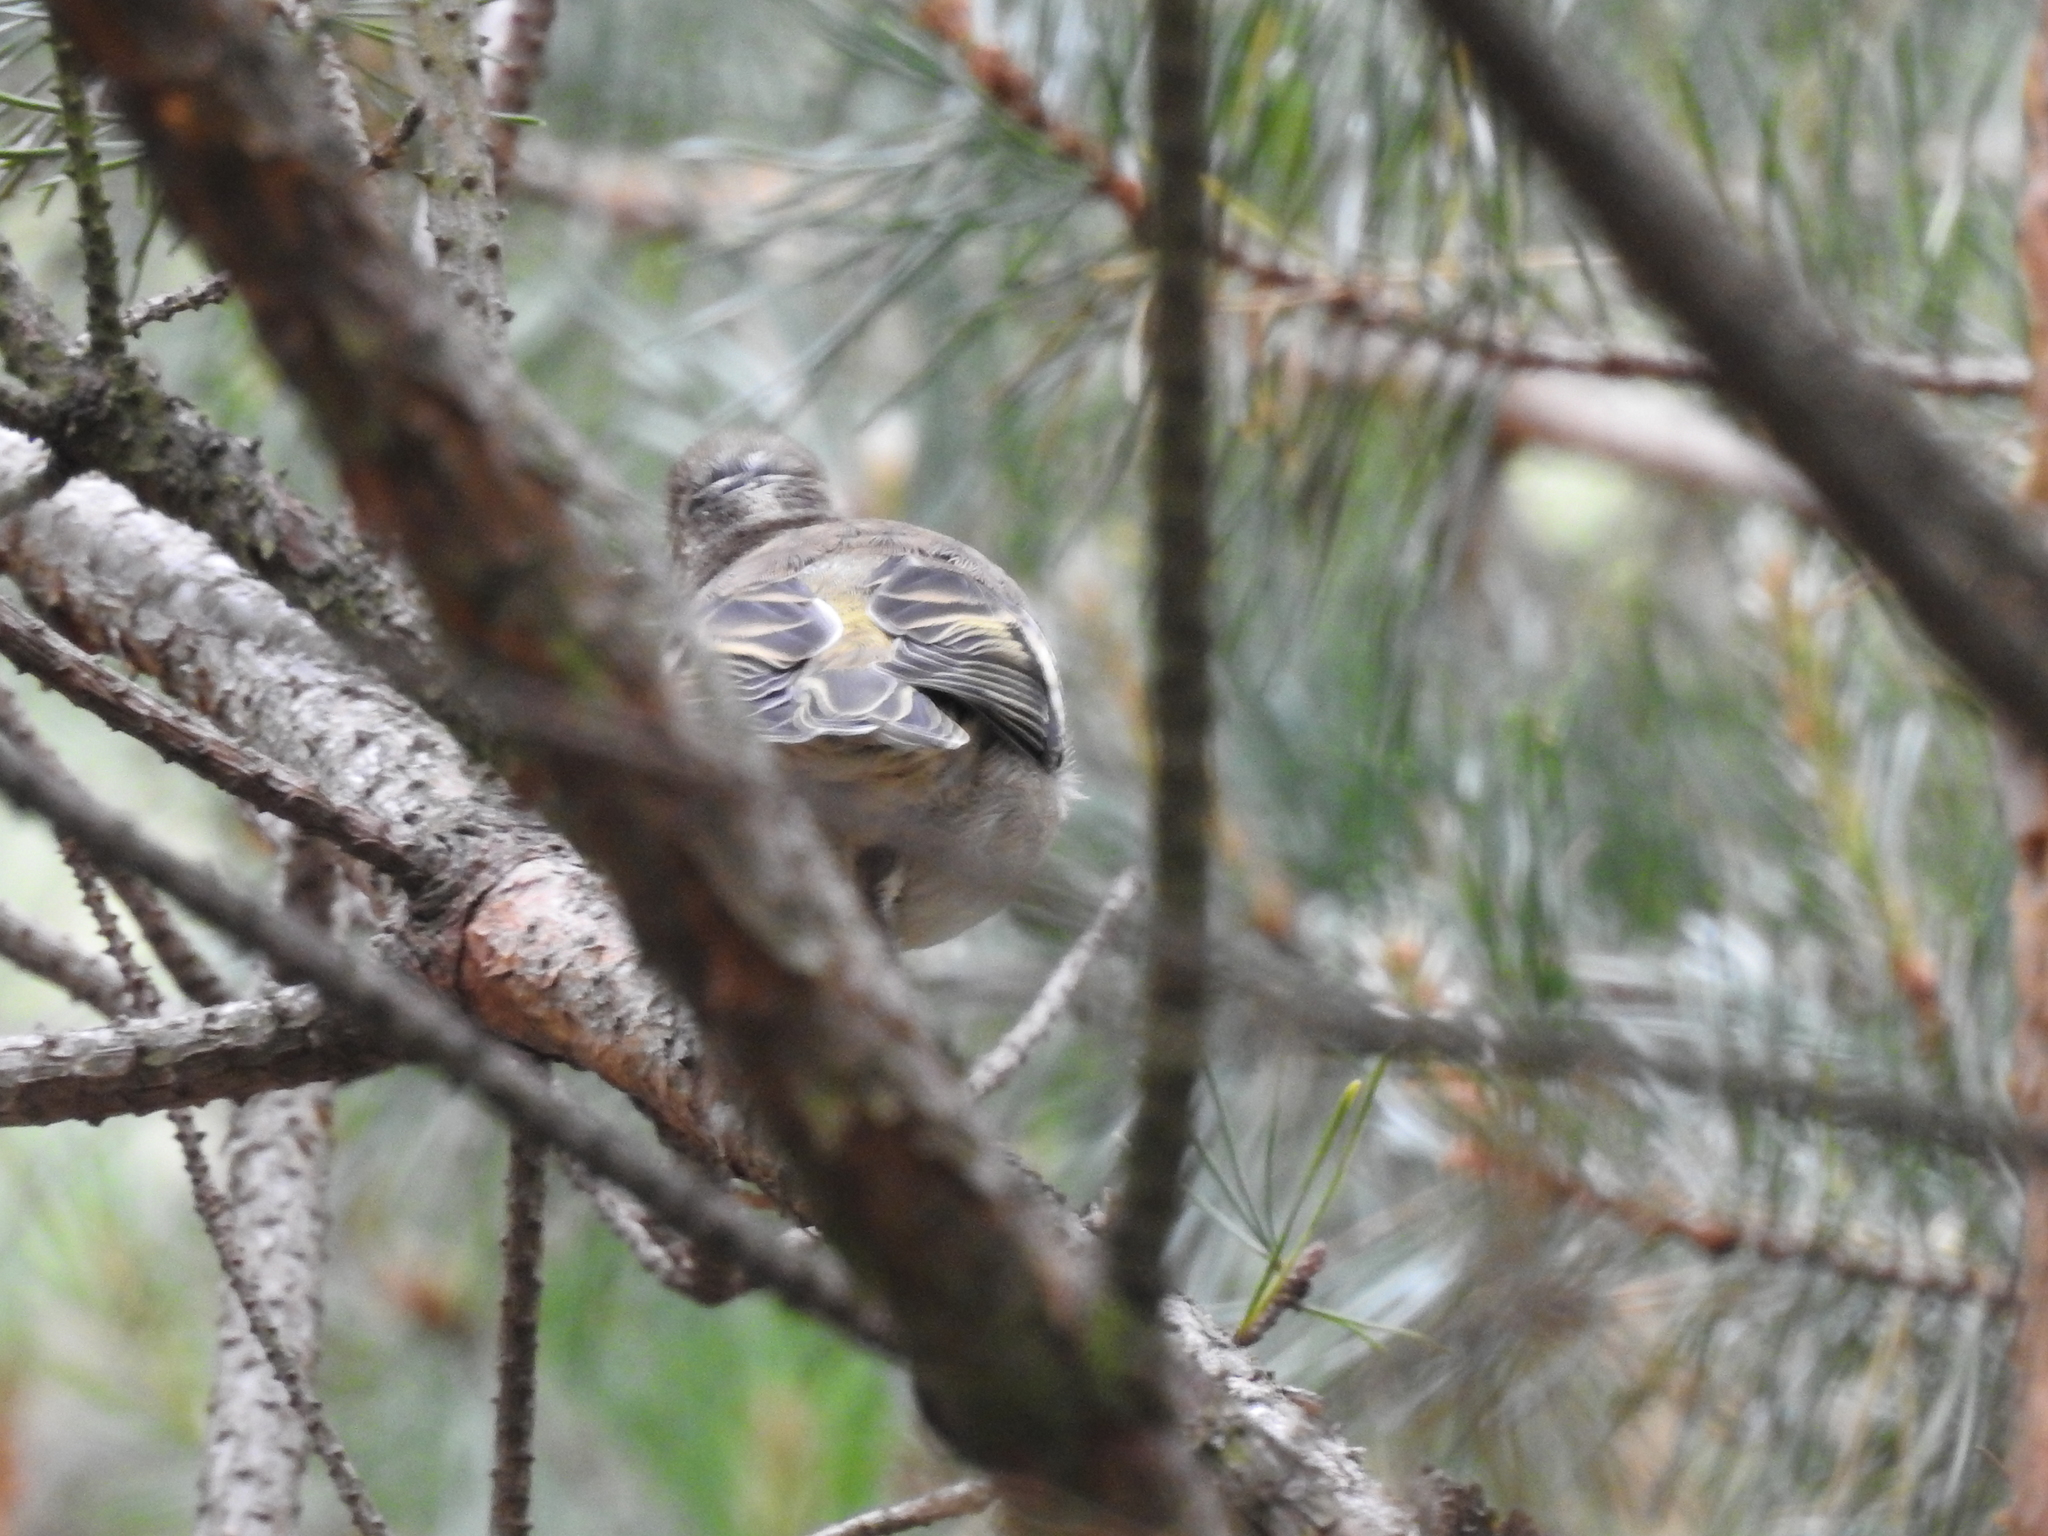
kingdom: Animalia
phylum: Chordata
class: Aves
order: Passeriformes
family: Fringillidae
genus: Fringilla
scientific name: Fringilla coelebs
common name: Common chaffinch
